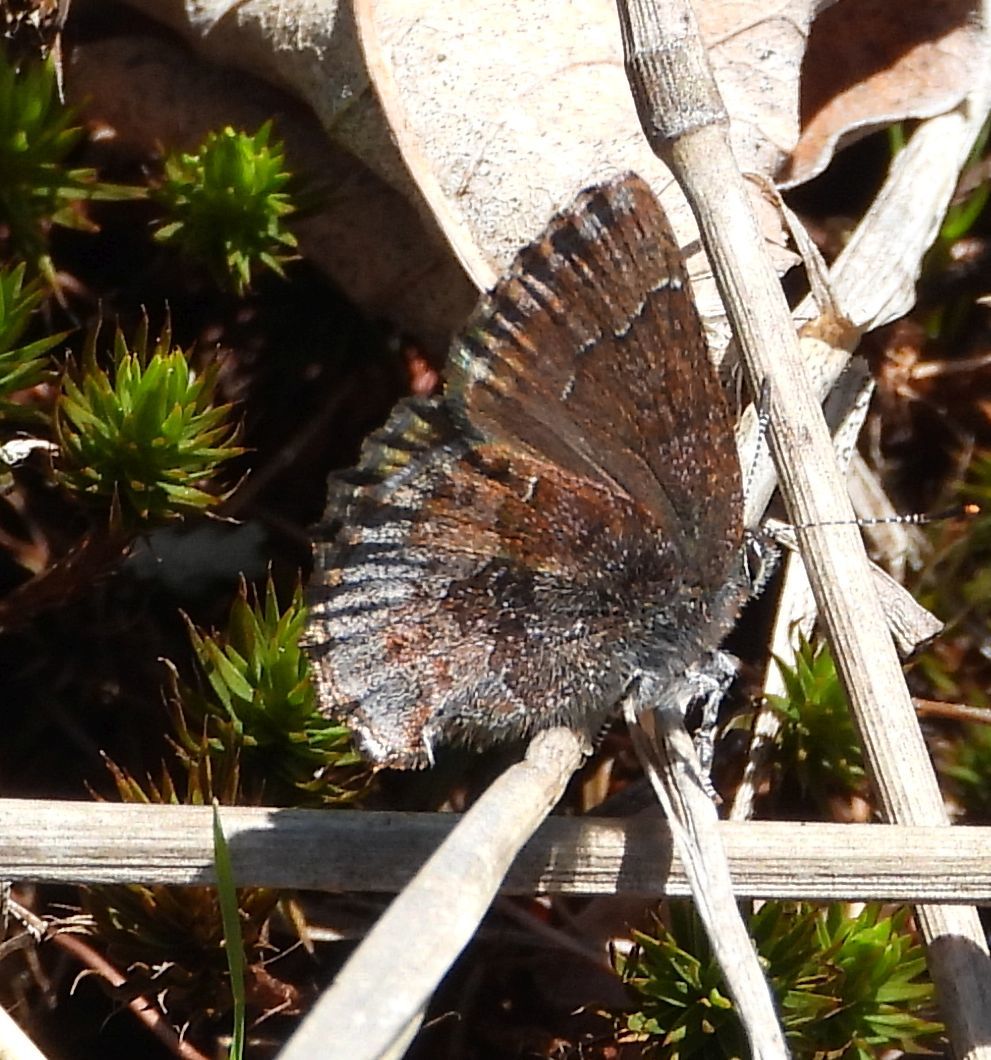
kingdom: Animalia
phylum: Arthropoda
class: Insecta
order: Lepidoptera
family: Lycaenidae
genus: Callophrys
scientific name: Callophrys polios
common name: Hoary elfin
